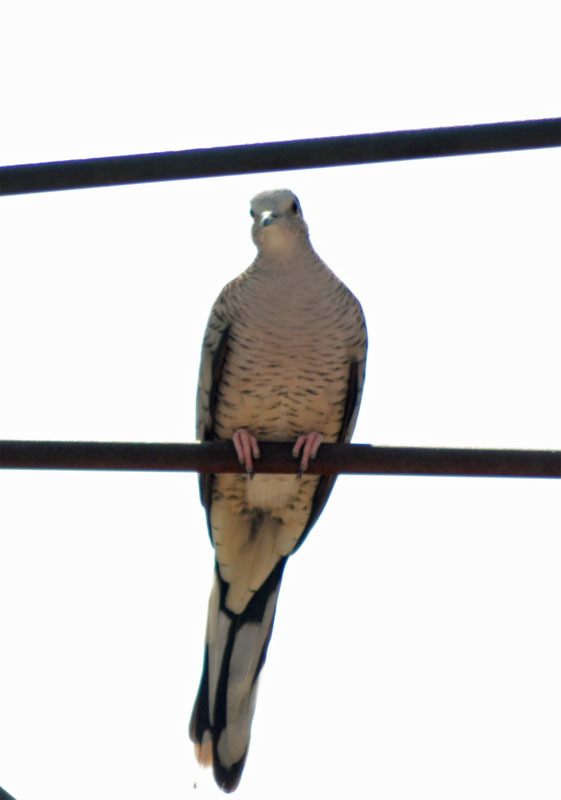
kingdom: Animalia
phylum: Chordata
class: Aves
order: Columbiformes
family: Columbidae
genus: Columbina
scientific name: Columbina inca
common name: Inca dove
